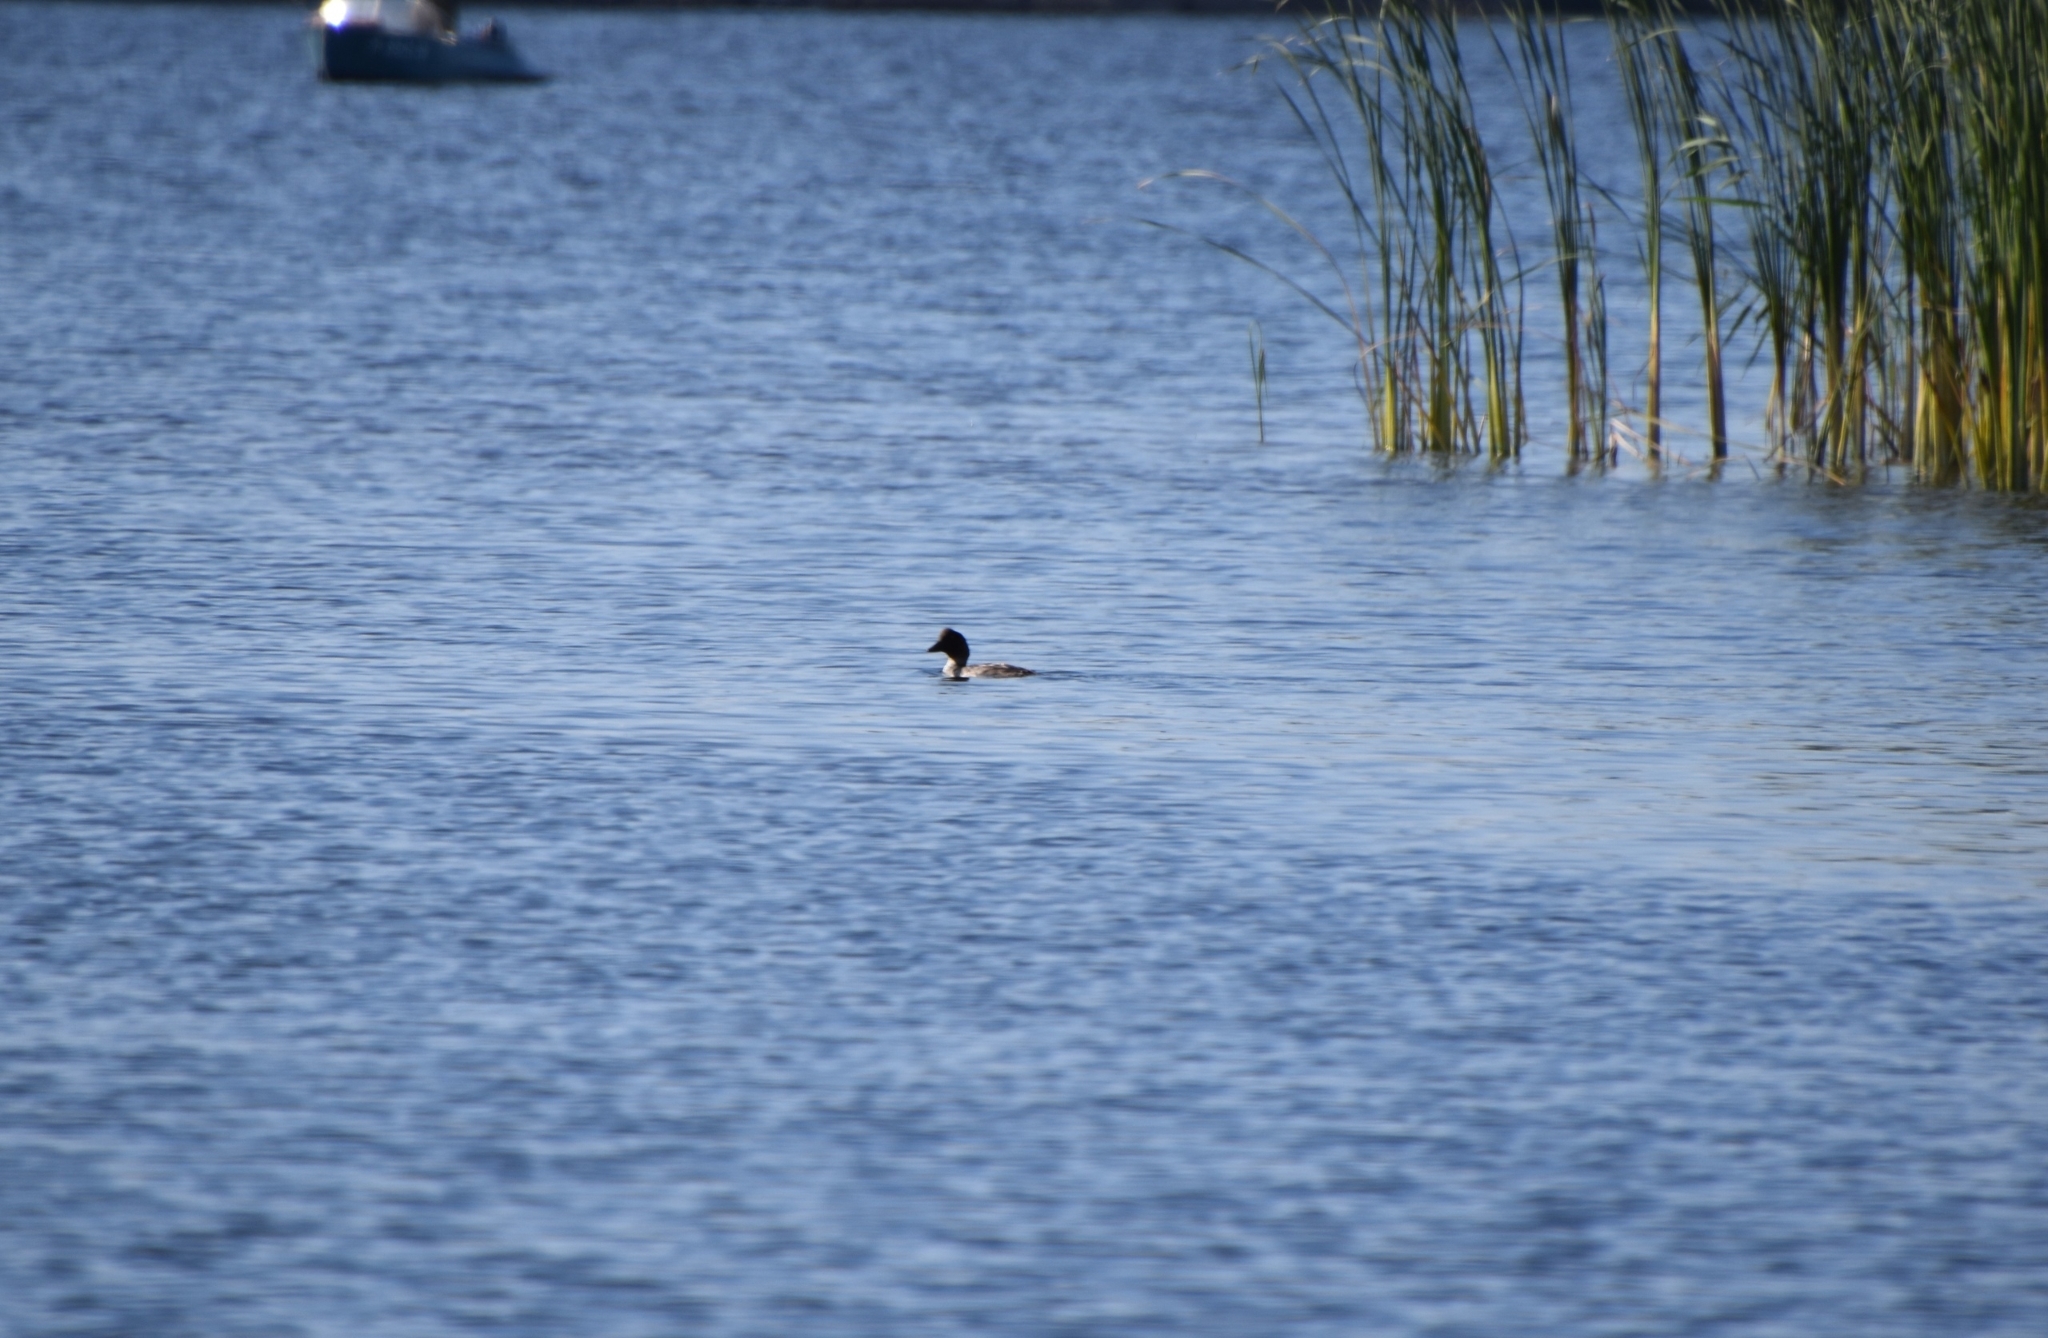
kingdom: Animalia
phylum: Chordata
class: Aves
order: Anseriformes
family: Anatidae
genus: Bucephala
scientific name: Bucephala clangula
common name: Common goldeneye
